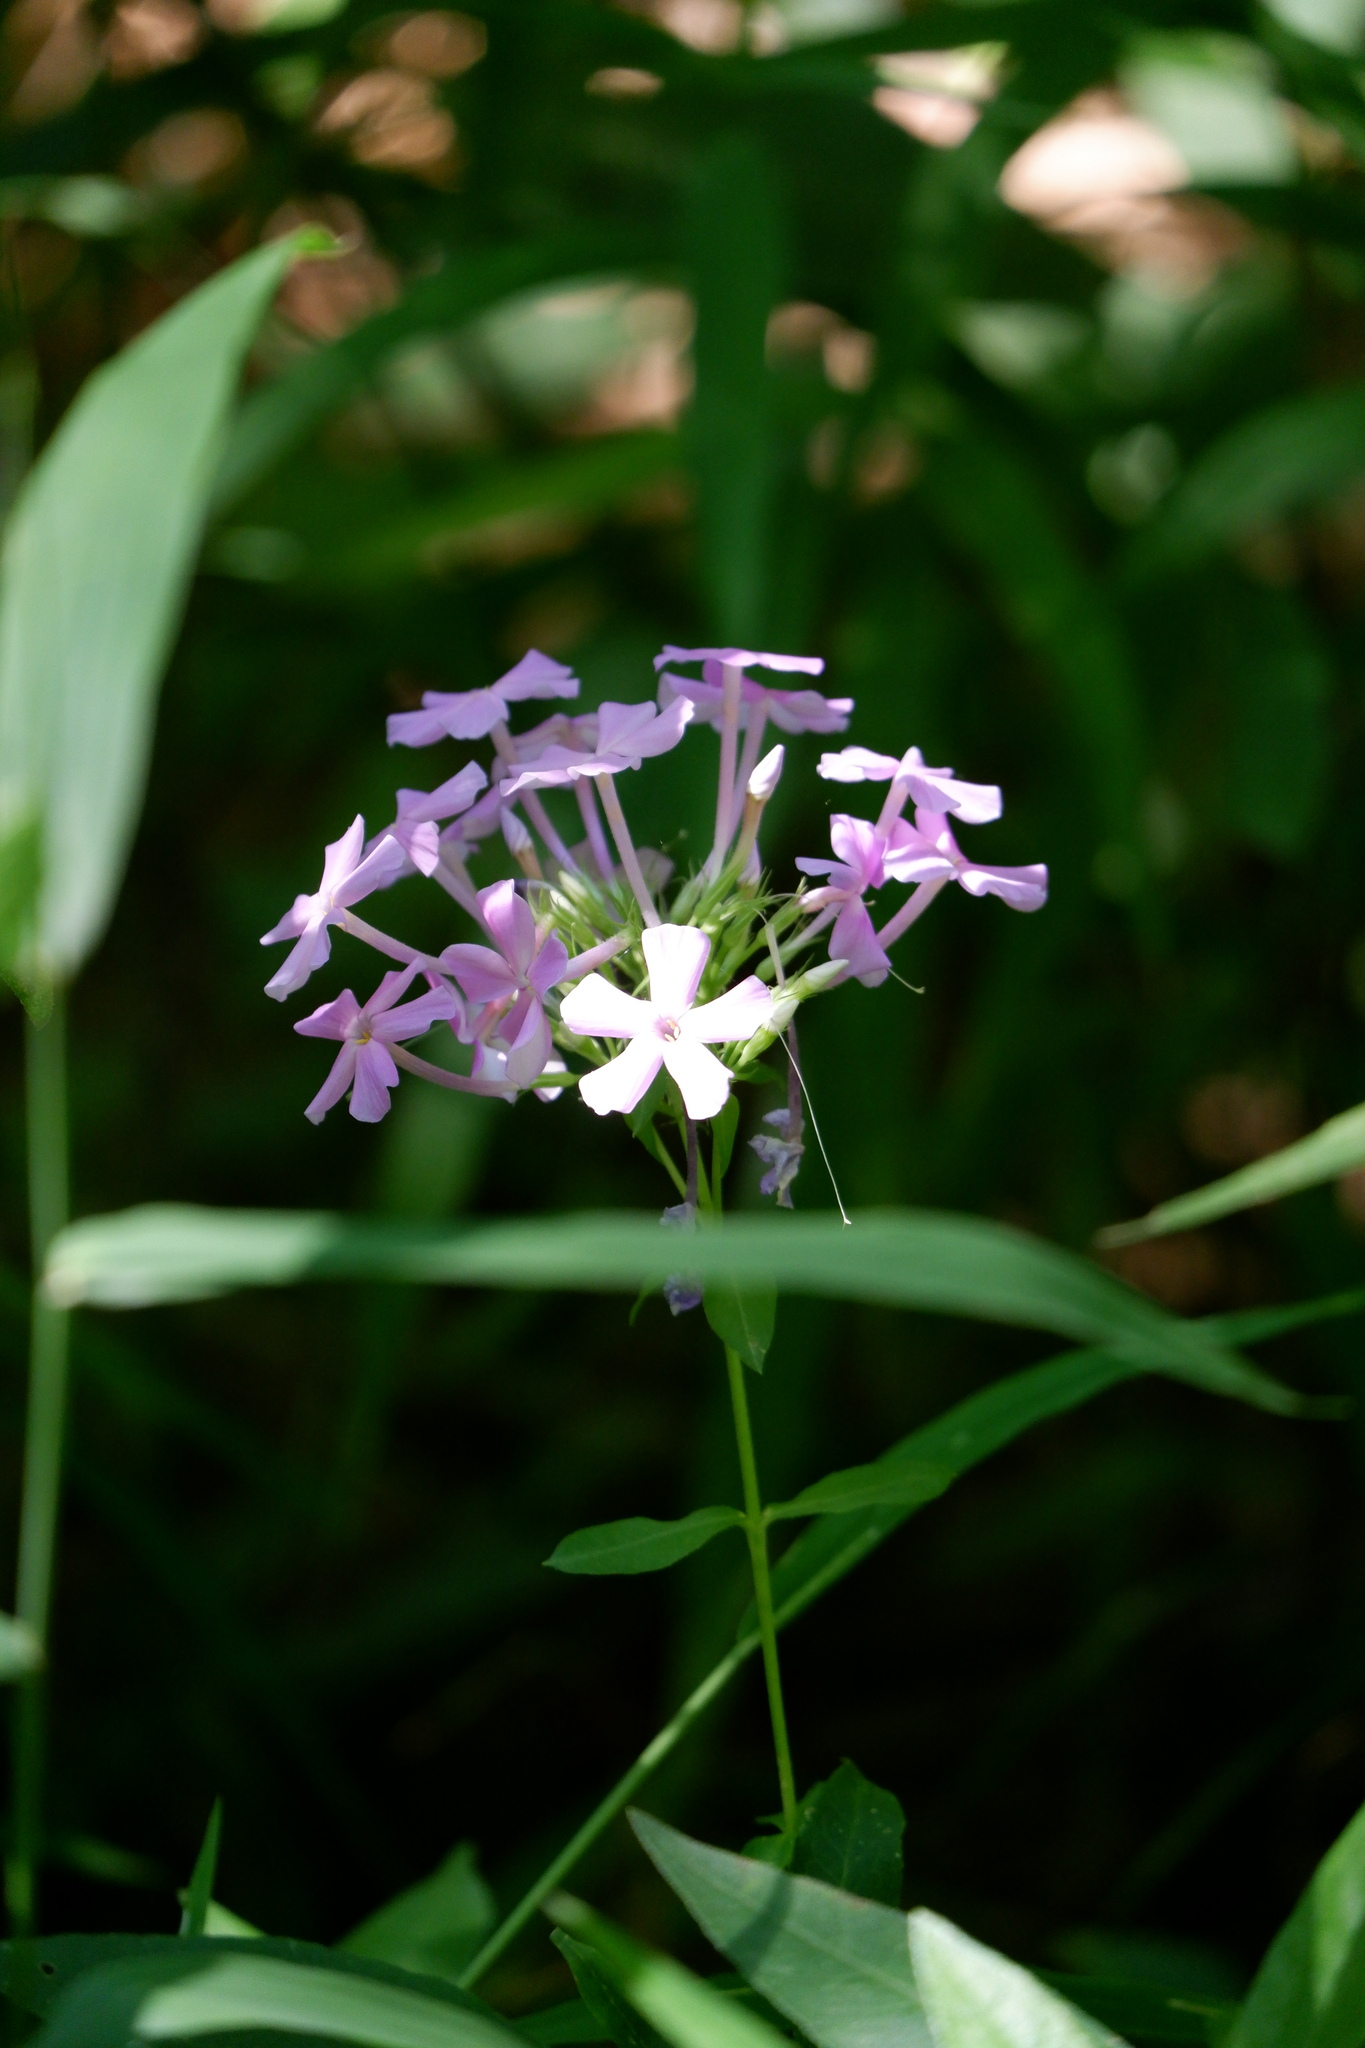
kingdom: Plantae
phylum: Tracheophyta
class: Magnoliopsida
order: Ericales
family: Polemoniaceae
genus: Phlox
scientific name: Phlox paniculata
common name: Fall phlox
